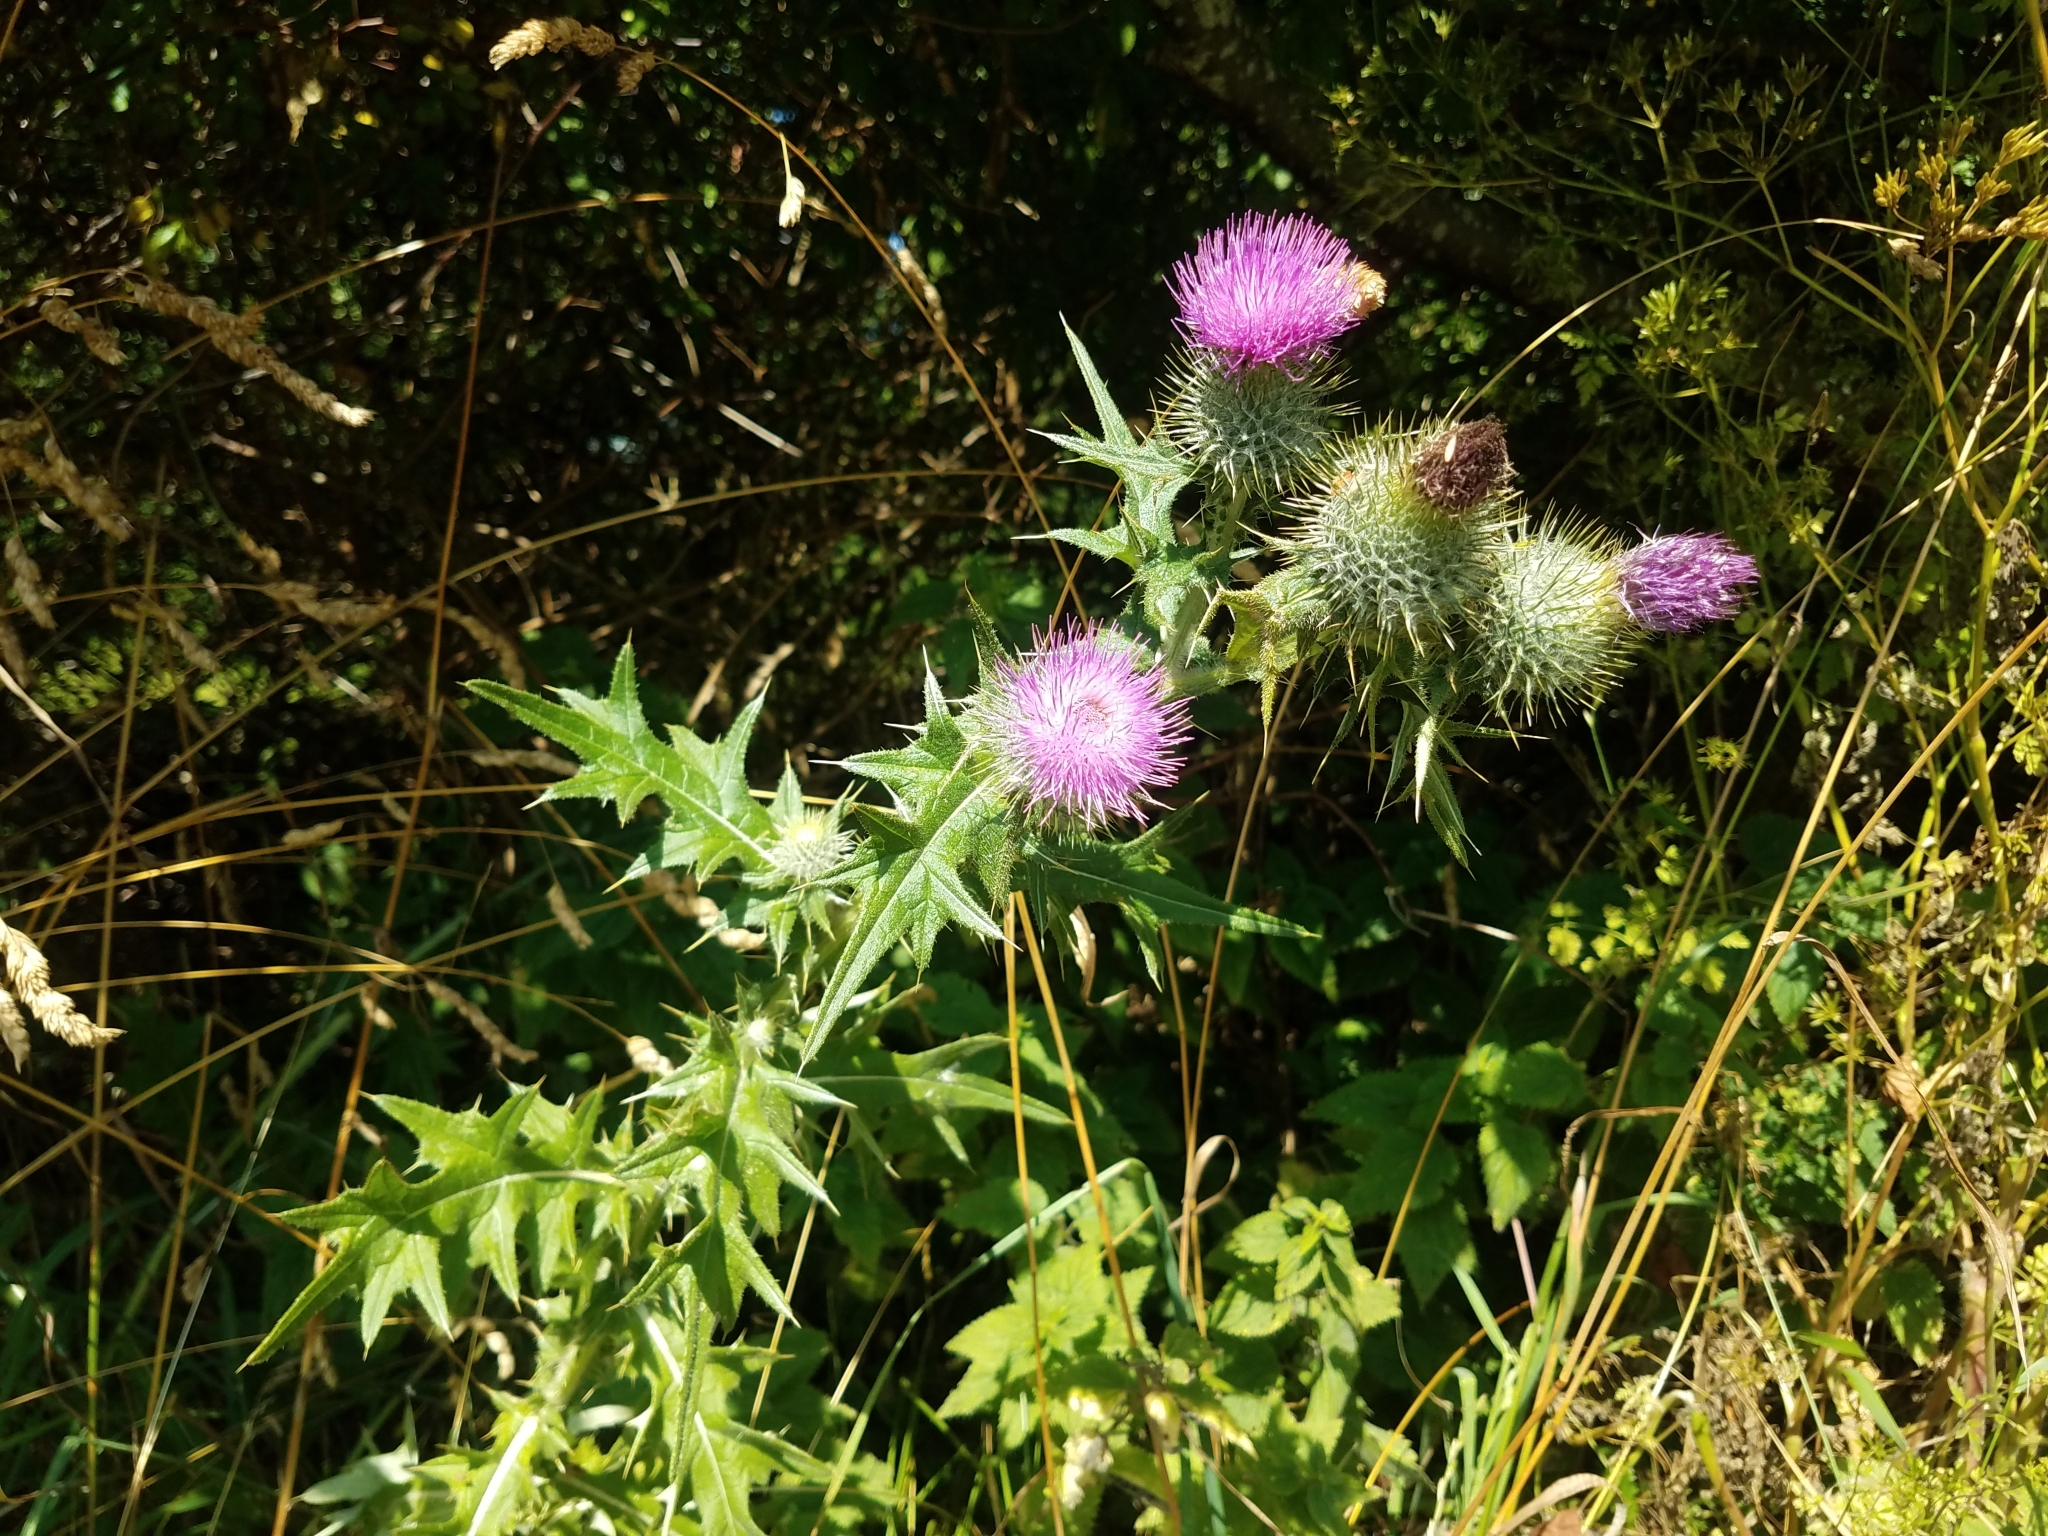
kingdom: Plantae
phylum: Tracheophyta
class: Magnoliopsida
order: Asterales
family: Asteraceae
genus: Cirsium
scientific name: Cirsium vulgare
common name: Bull thistle
